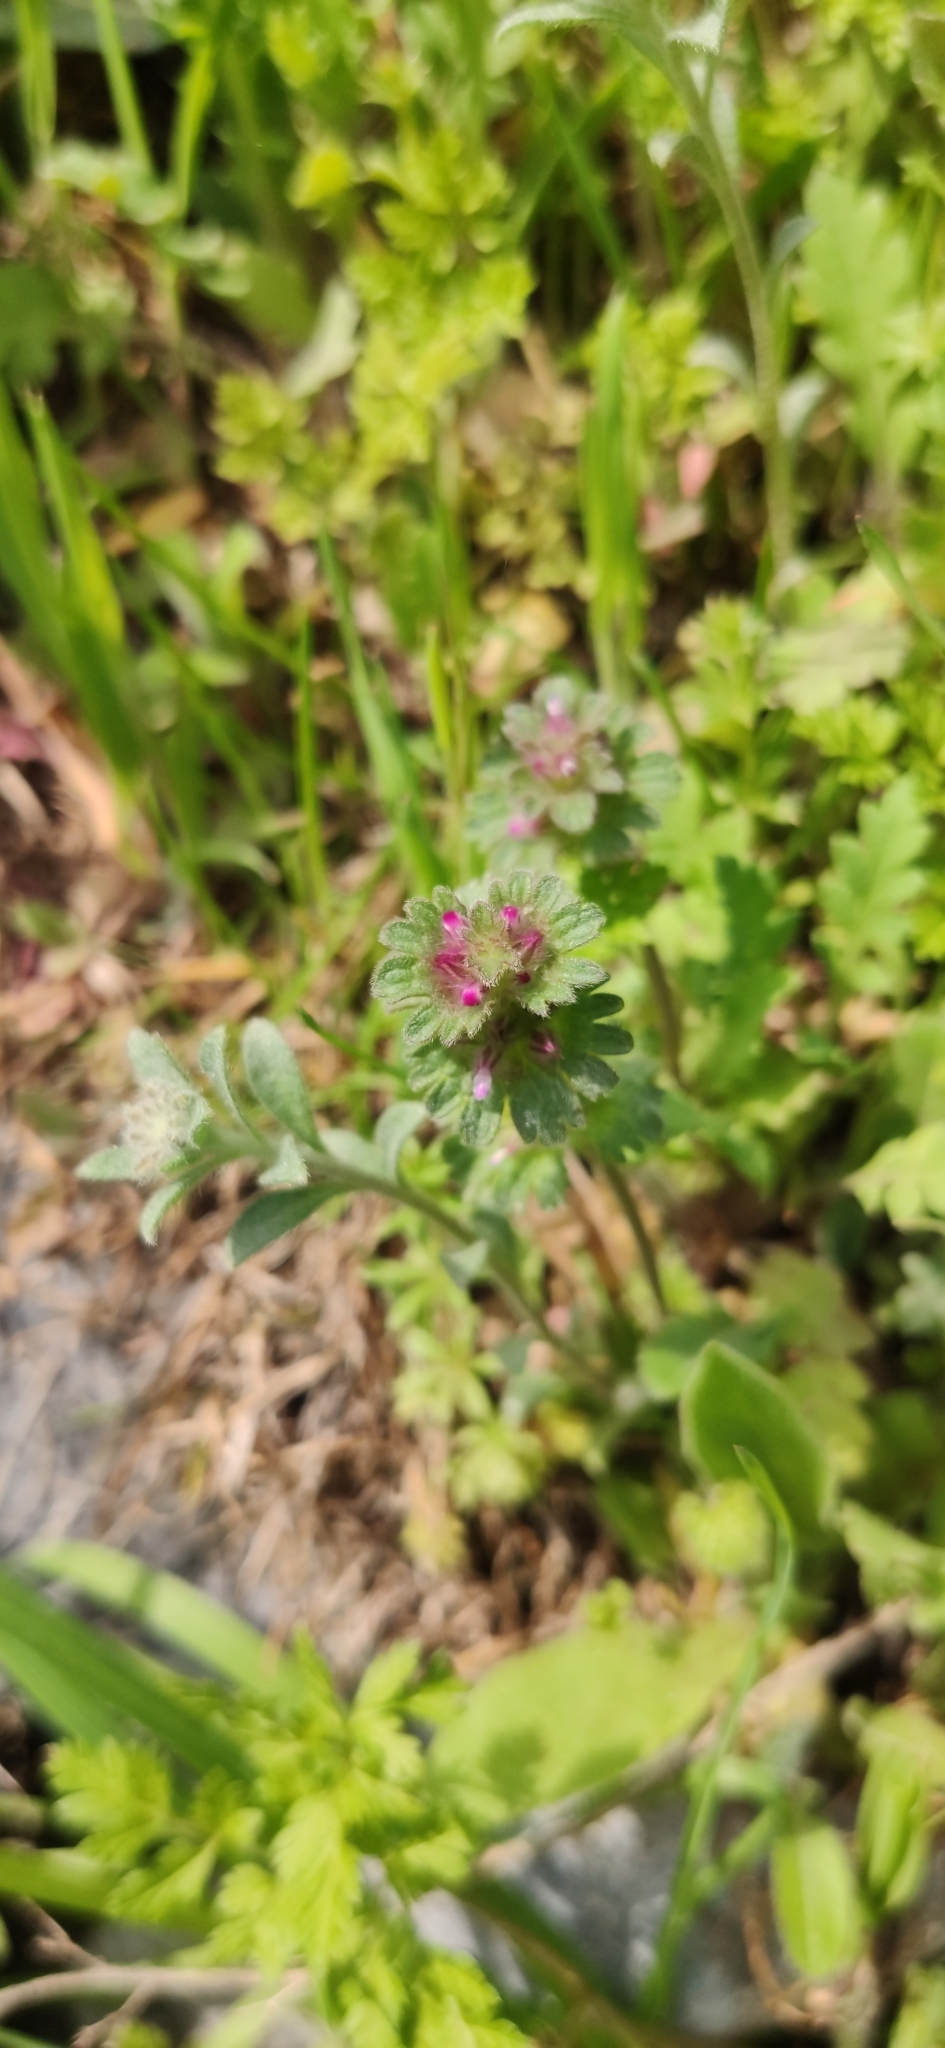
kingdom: Plantae
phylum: Tracheophyta
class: Magnoliopsida
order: Lamiales
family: Lamiaceae
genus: Lamium
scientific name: Lamium amplexicaule
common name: Henbit dead-nettle
